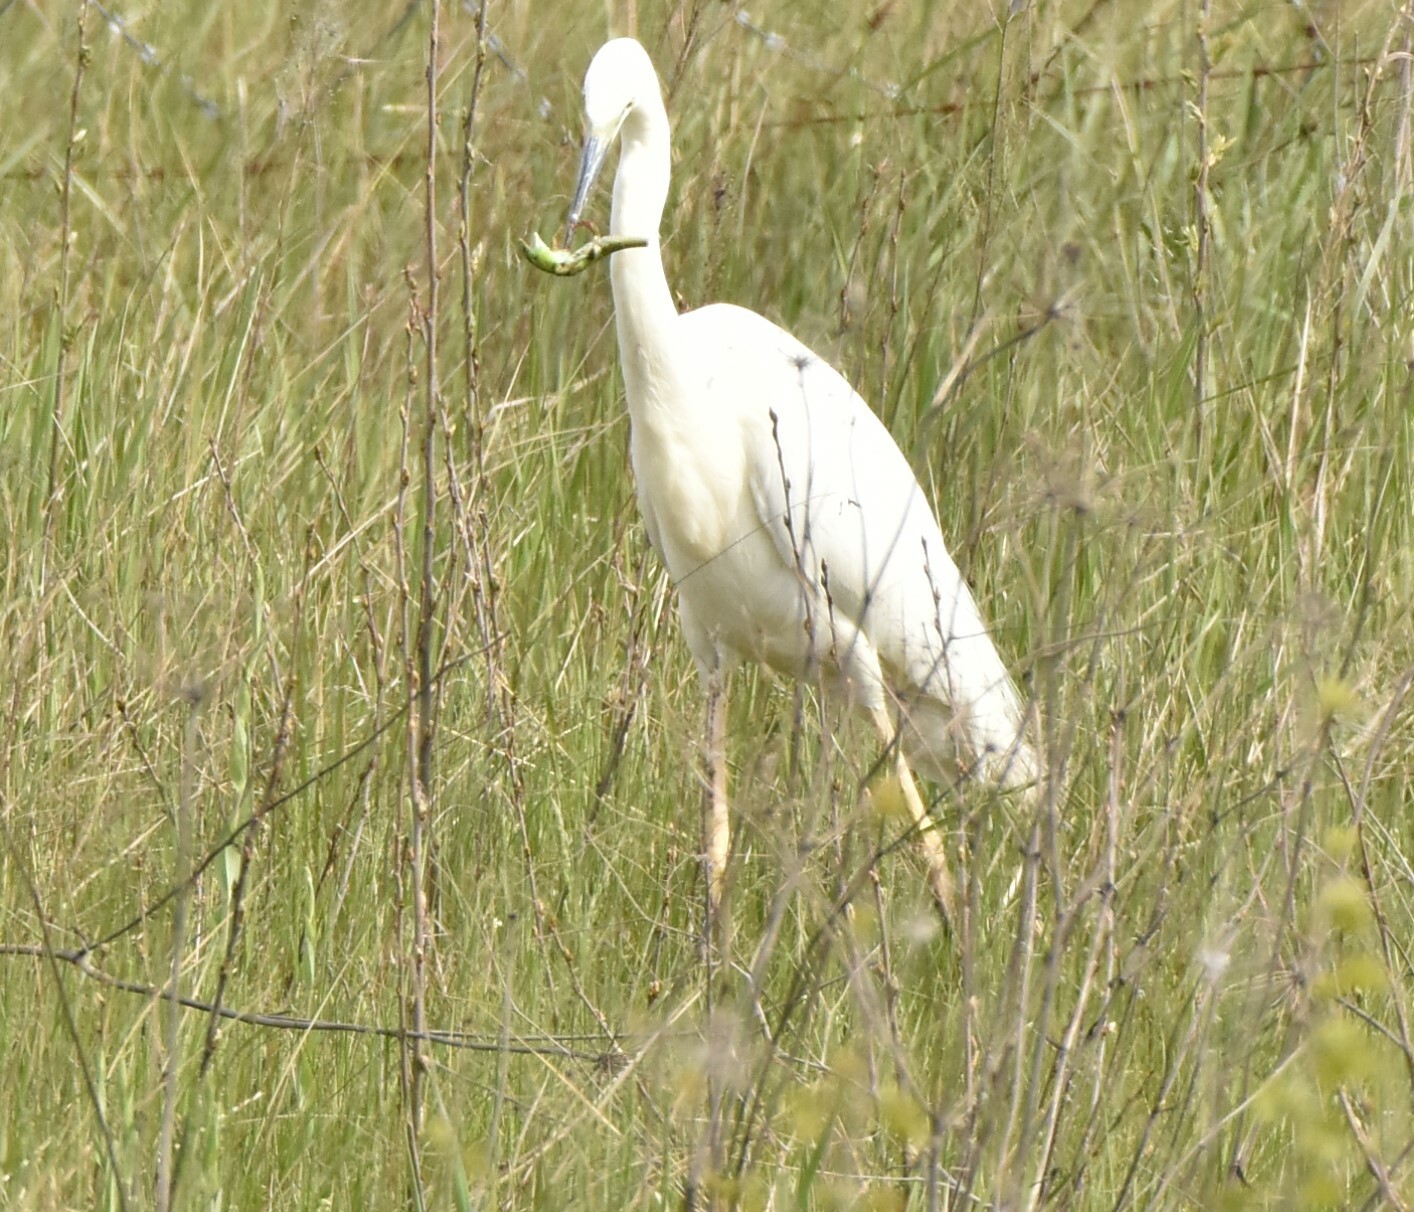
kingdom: Animalia
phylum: Chordata
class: Aves
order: Pelecaniformes
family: Ardeidae
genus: Ardea
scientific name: Ardea alba
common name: Great egret
